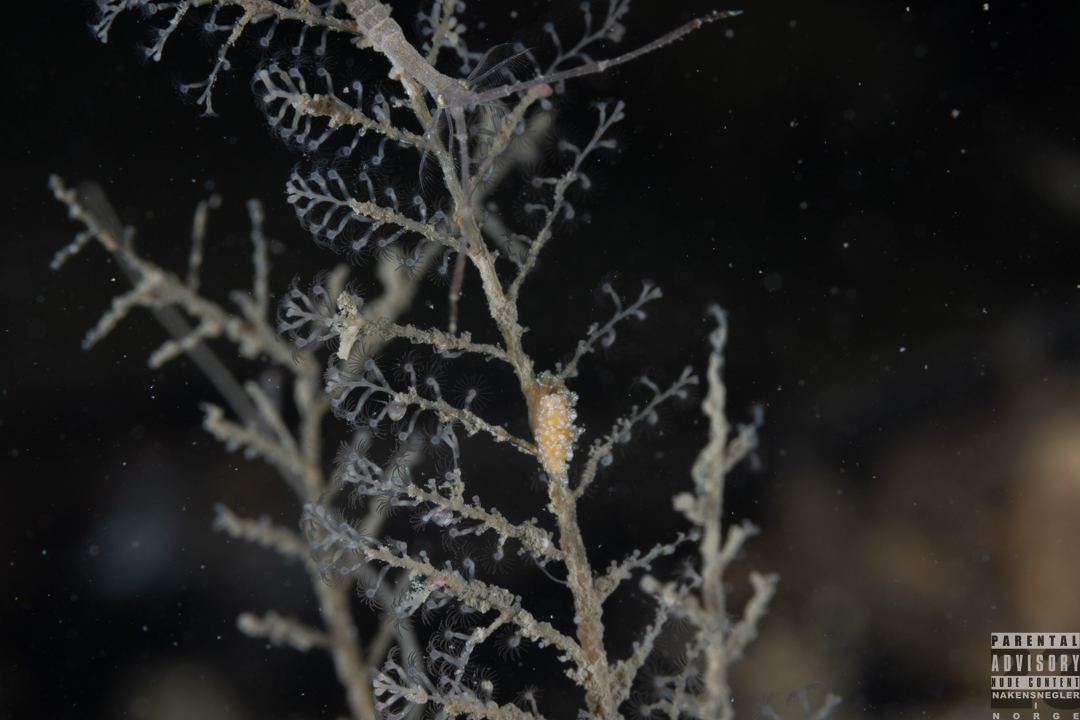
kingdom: Animalia
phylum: Mollusca
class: Gastropoda
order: Nudibranchia
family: Dotidae
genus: Doto
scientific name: Doto fragilis
